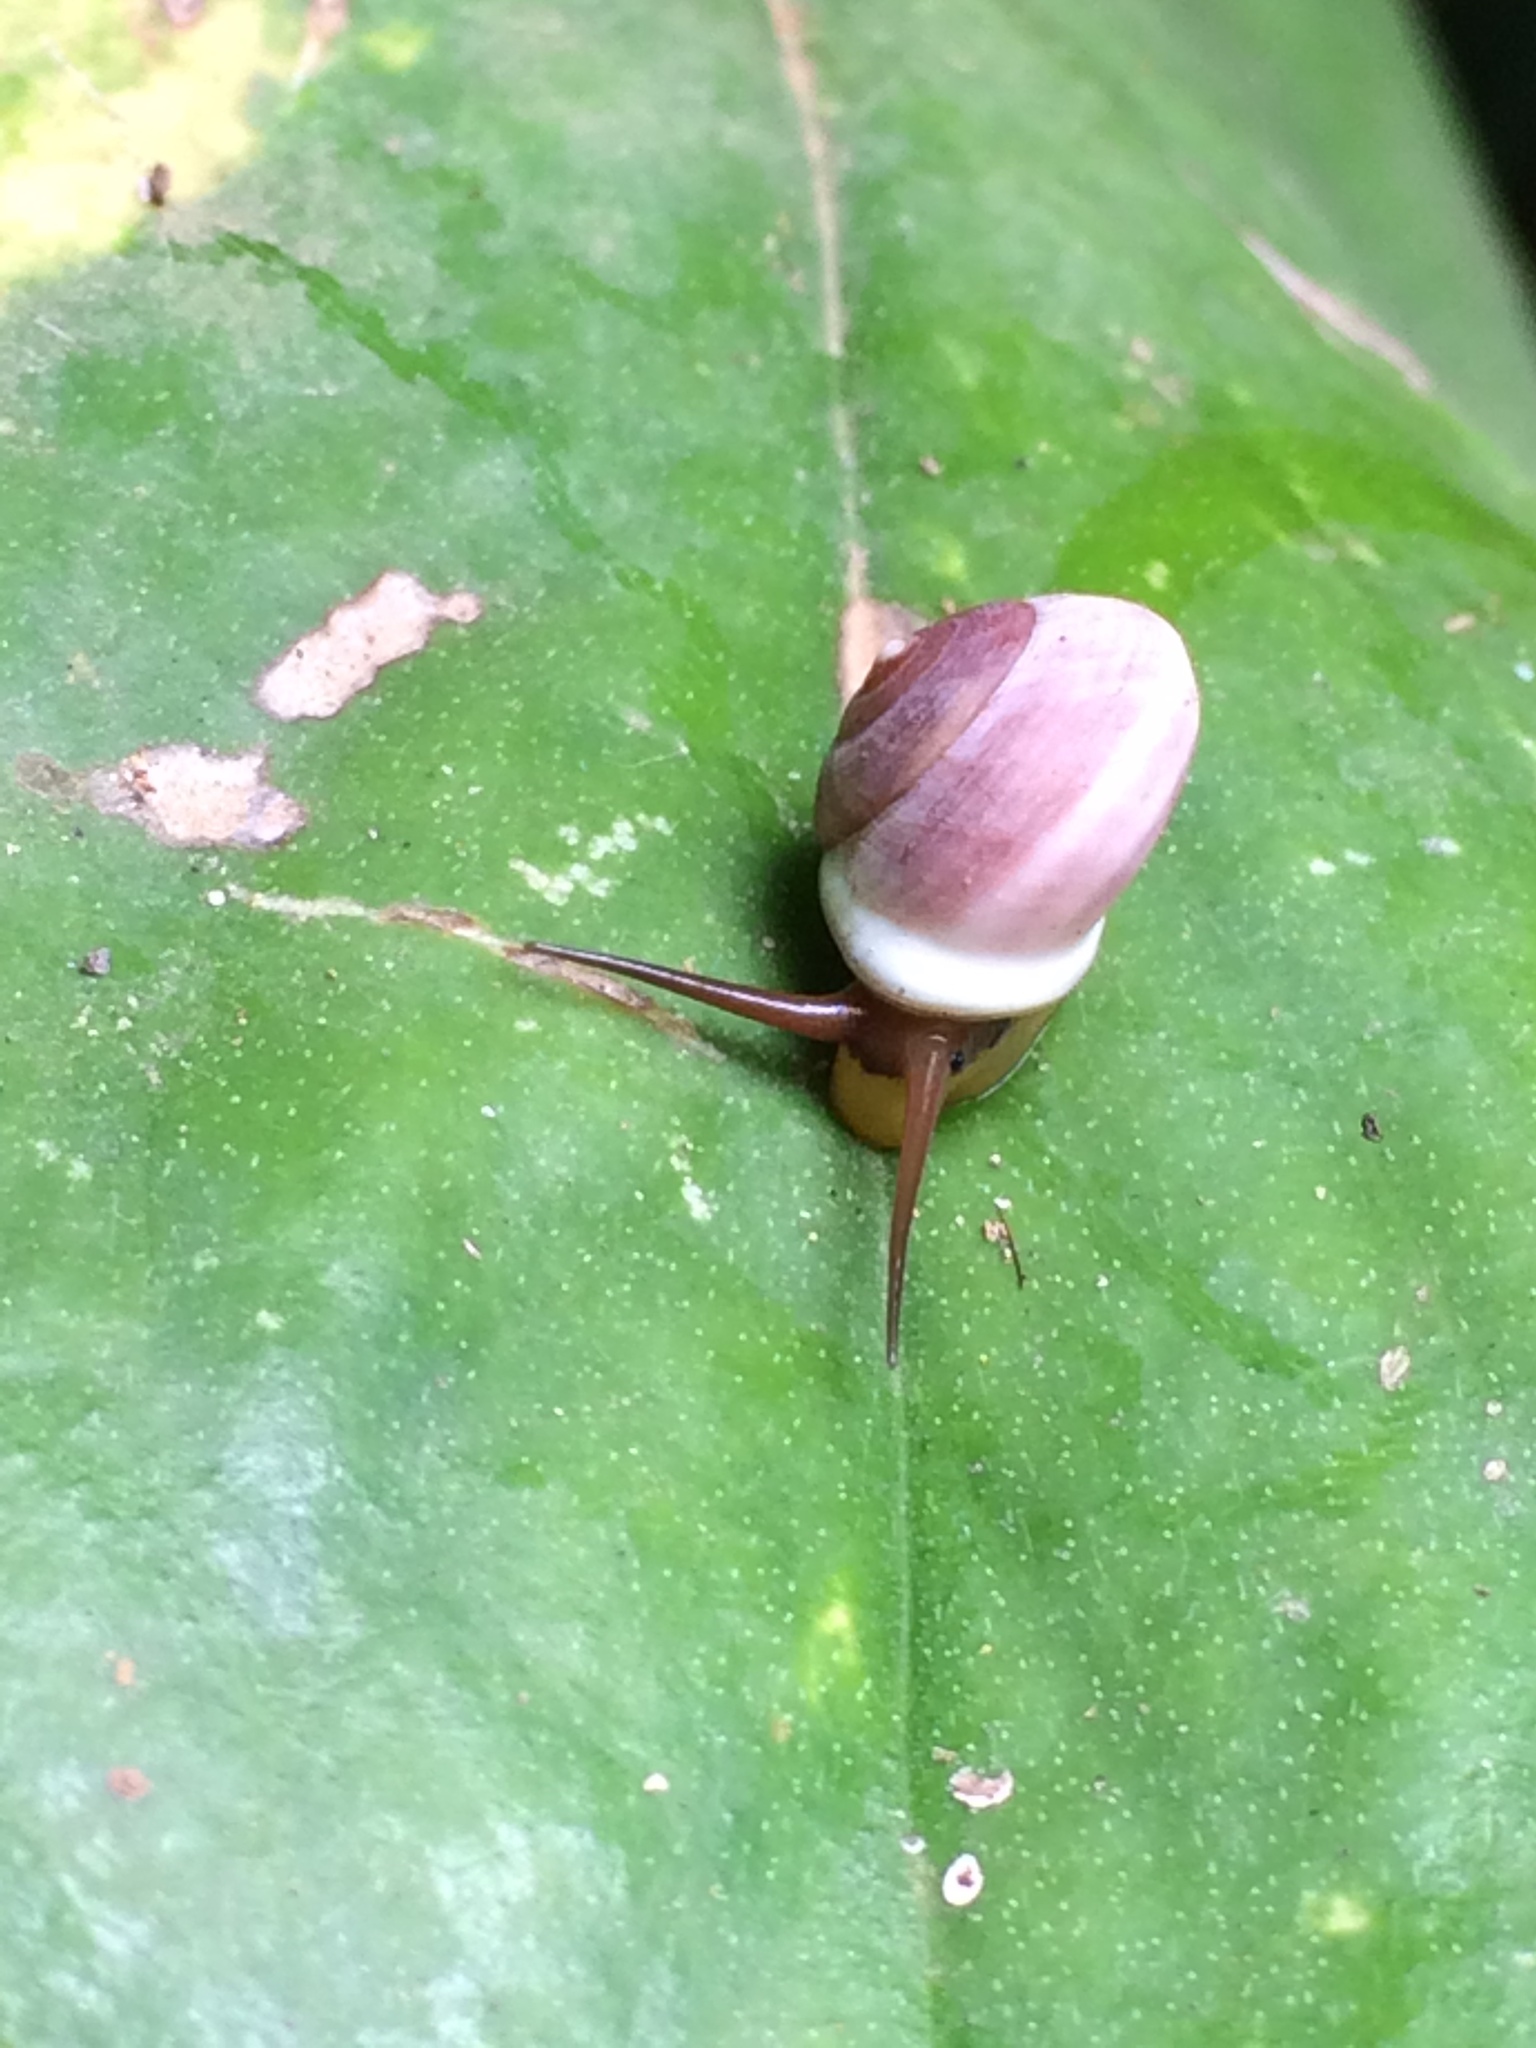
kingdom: Animalia
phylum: Mollusca
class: Gastropoda
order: Cycloneritida
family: Helicinidae
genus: Helicina
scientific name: Helicina variabilis
